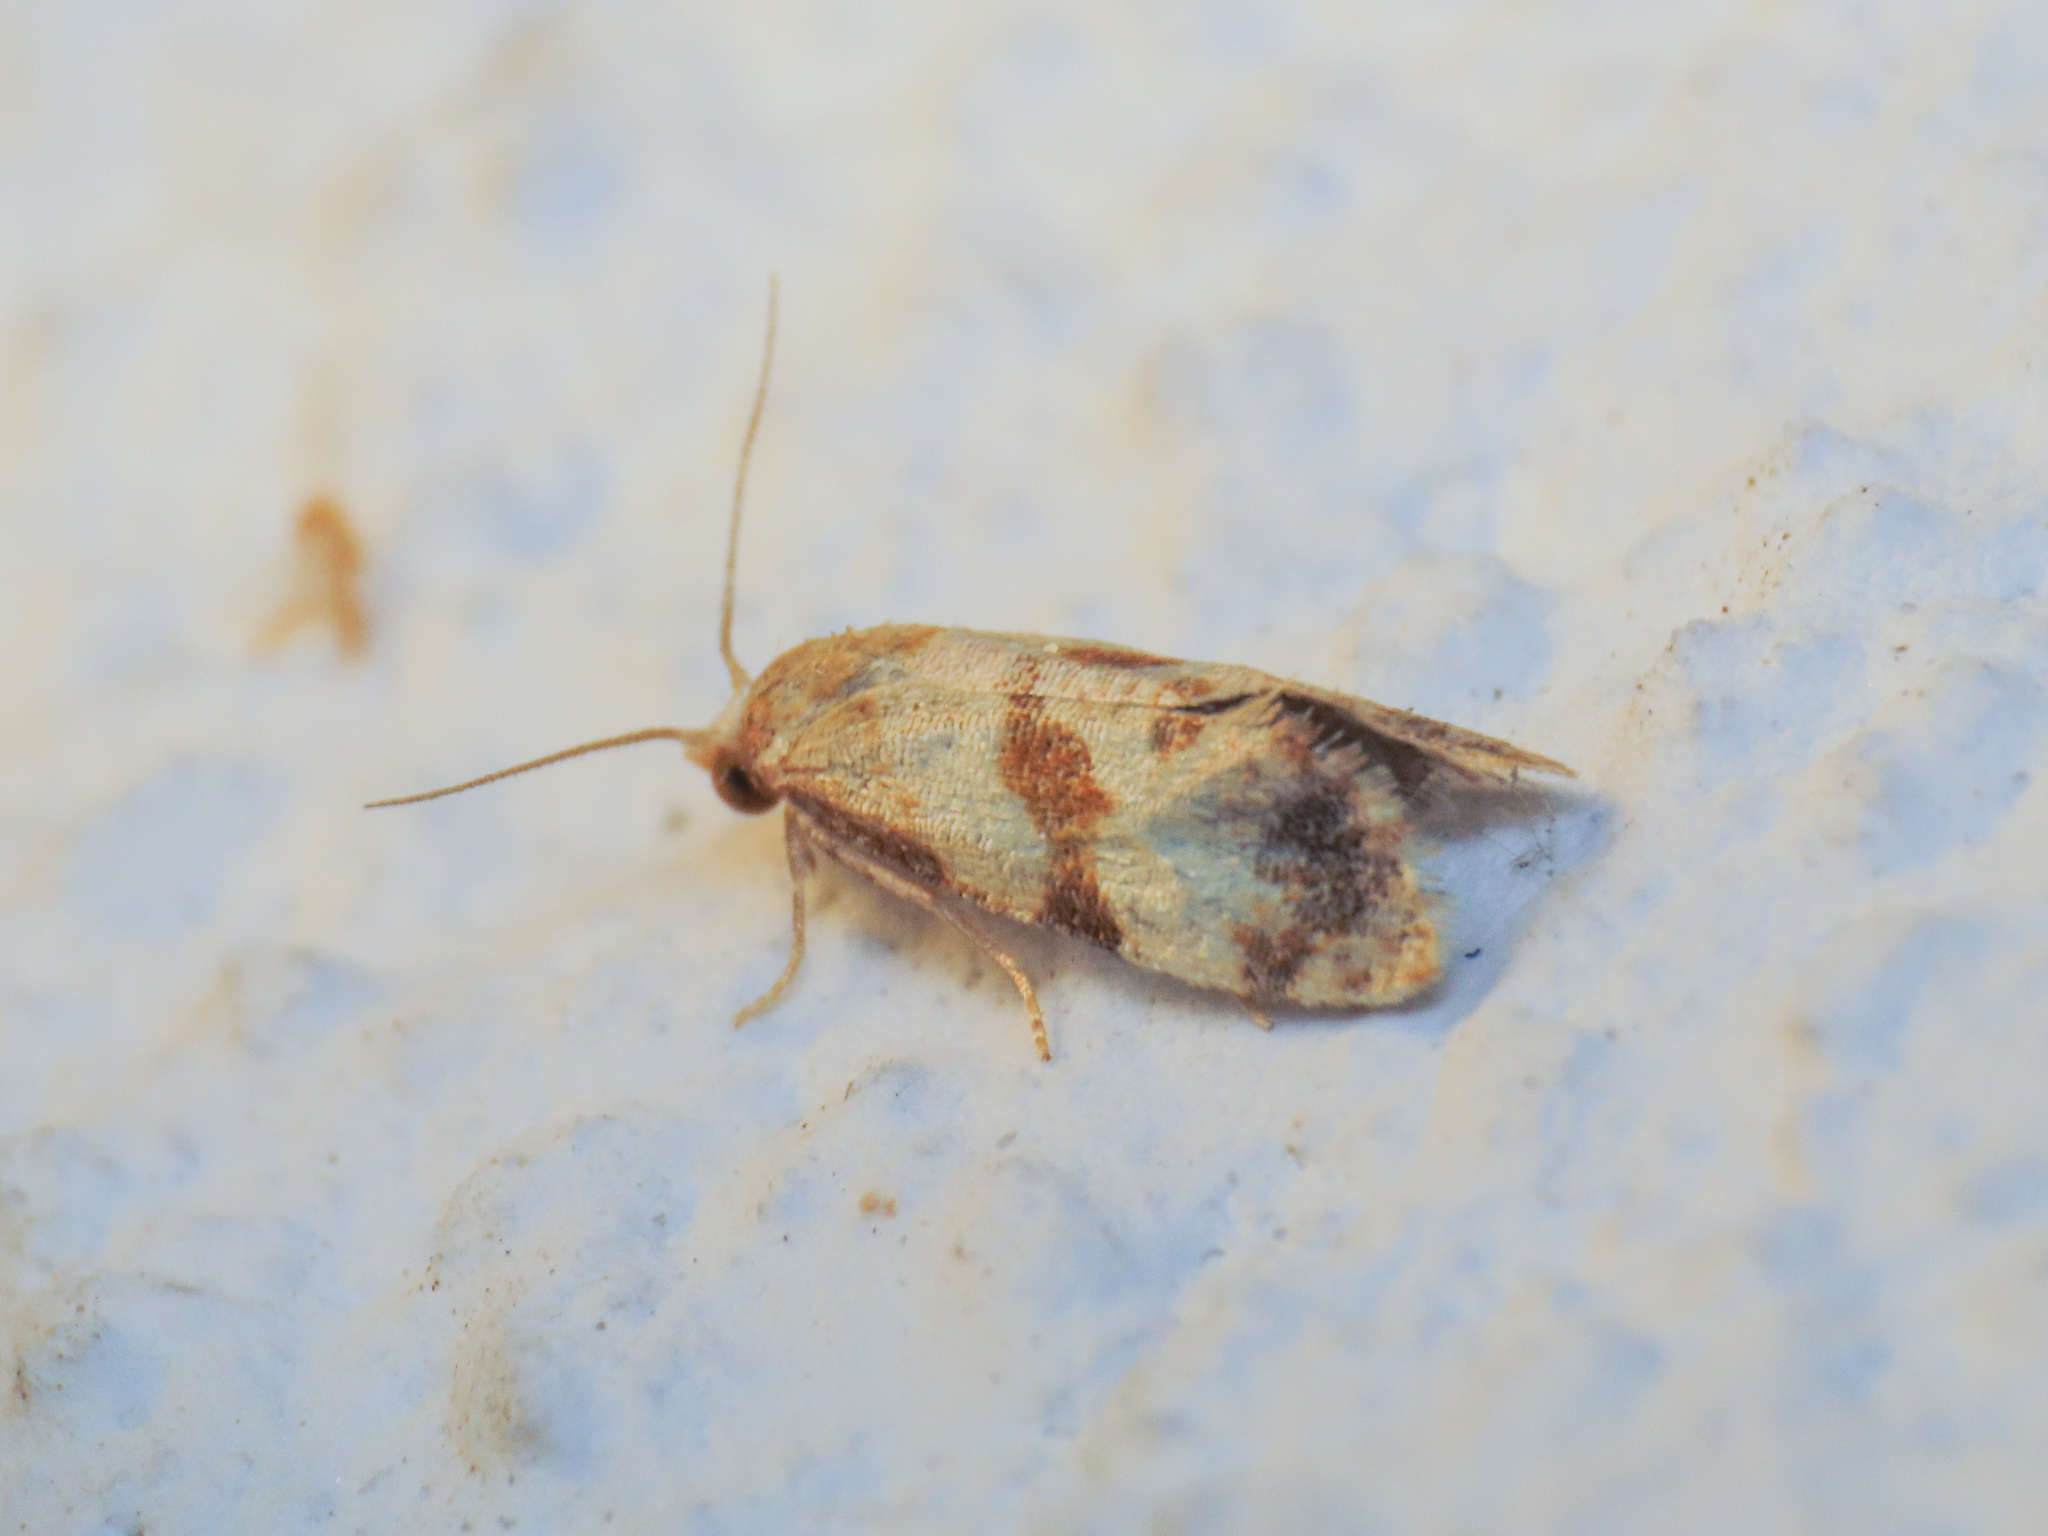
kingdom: Animalia
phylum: Arthropoda
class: Insecta
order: Lepidoptera
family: Tortricidae
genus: Phalonidia
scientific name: Phalonidia contractana
